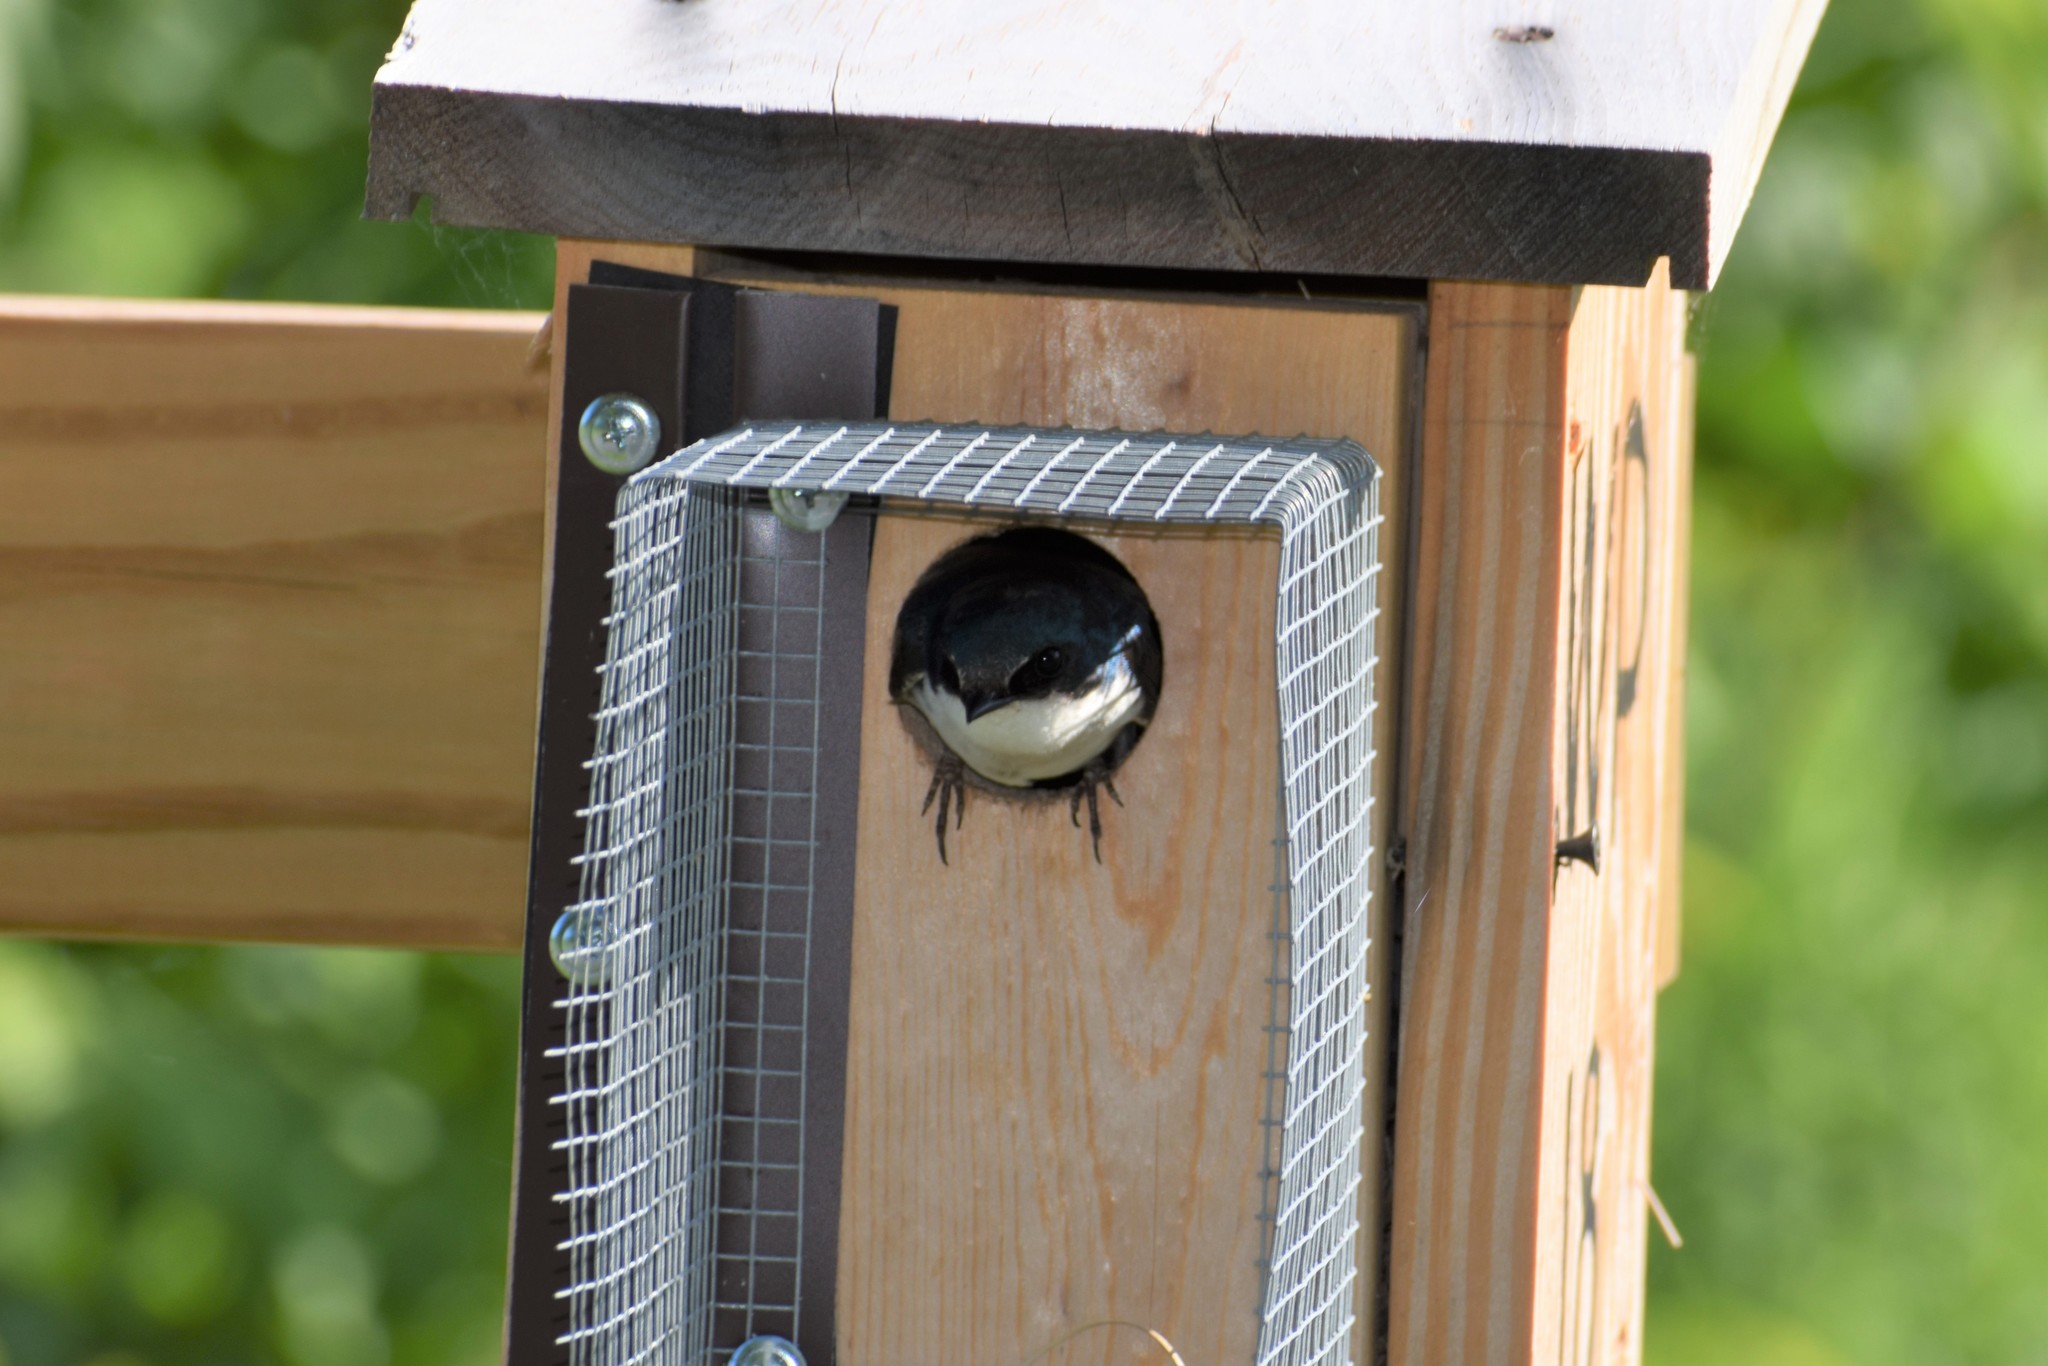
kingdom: Animalia
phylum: Chordata
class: Aves
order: Passeriformes
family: Hirundinidae
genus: Tachycineta
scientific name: Tachycineta bicolor
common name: Tree swallow
